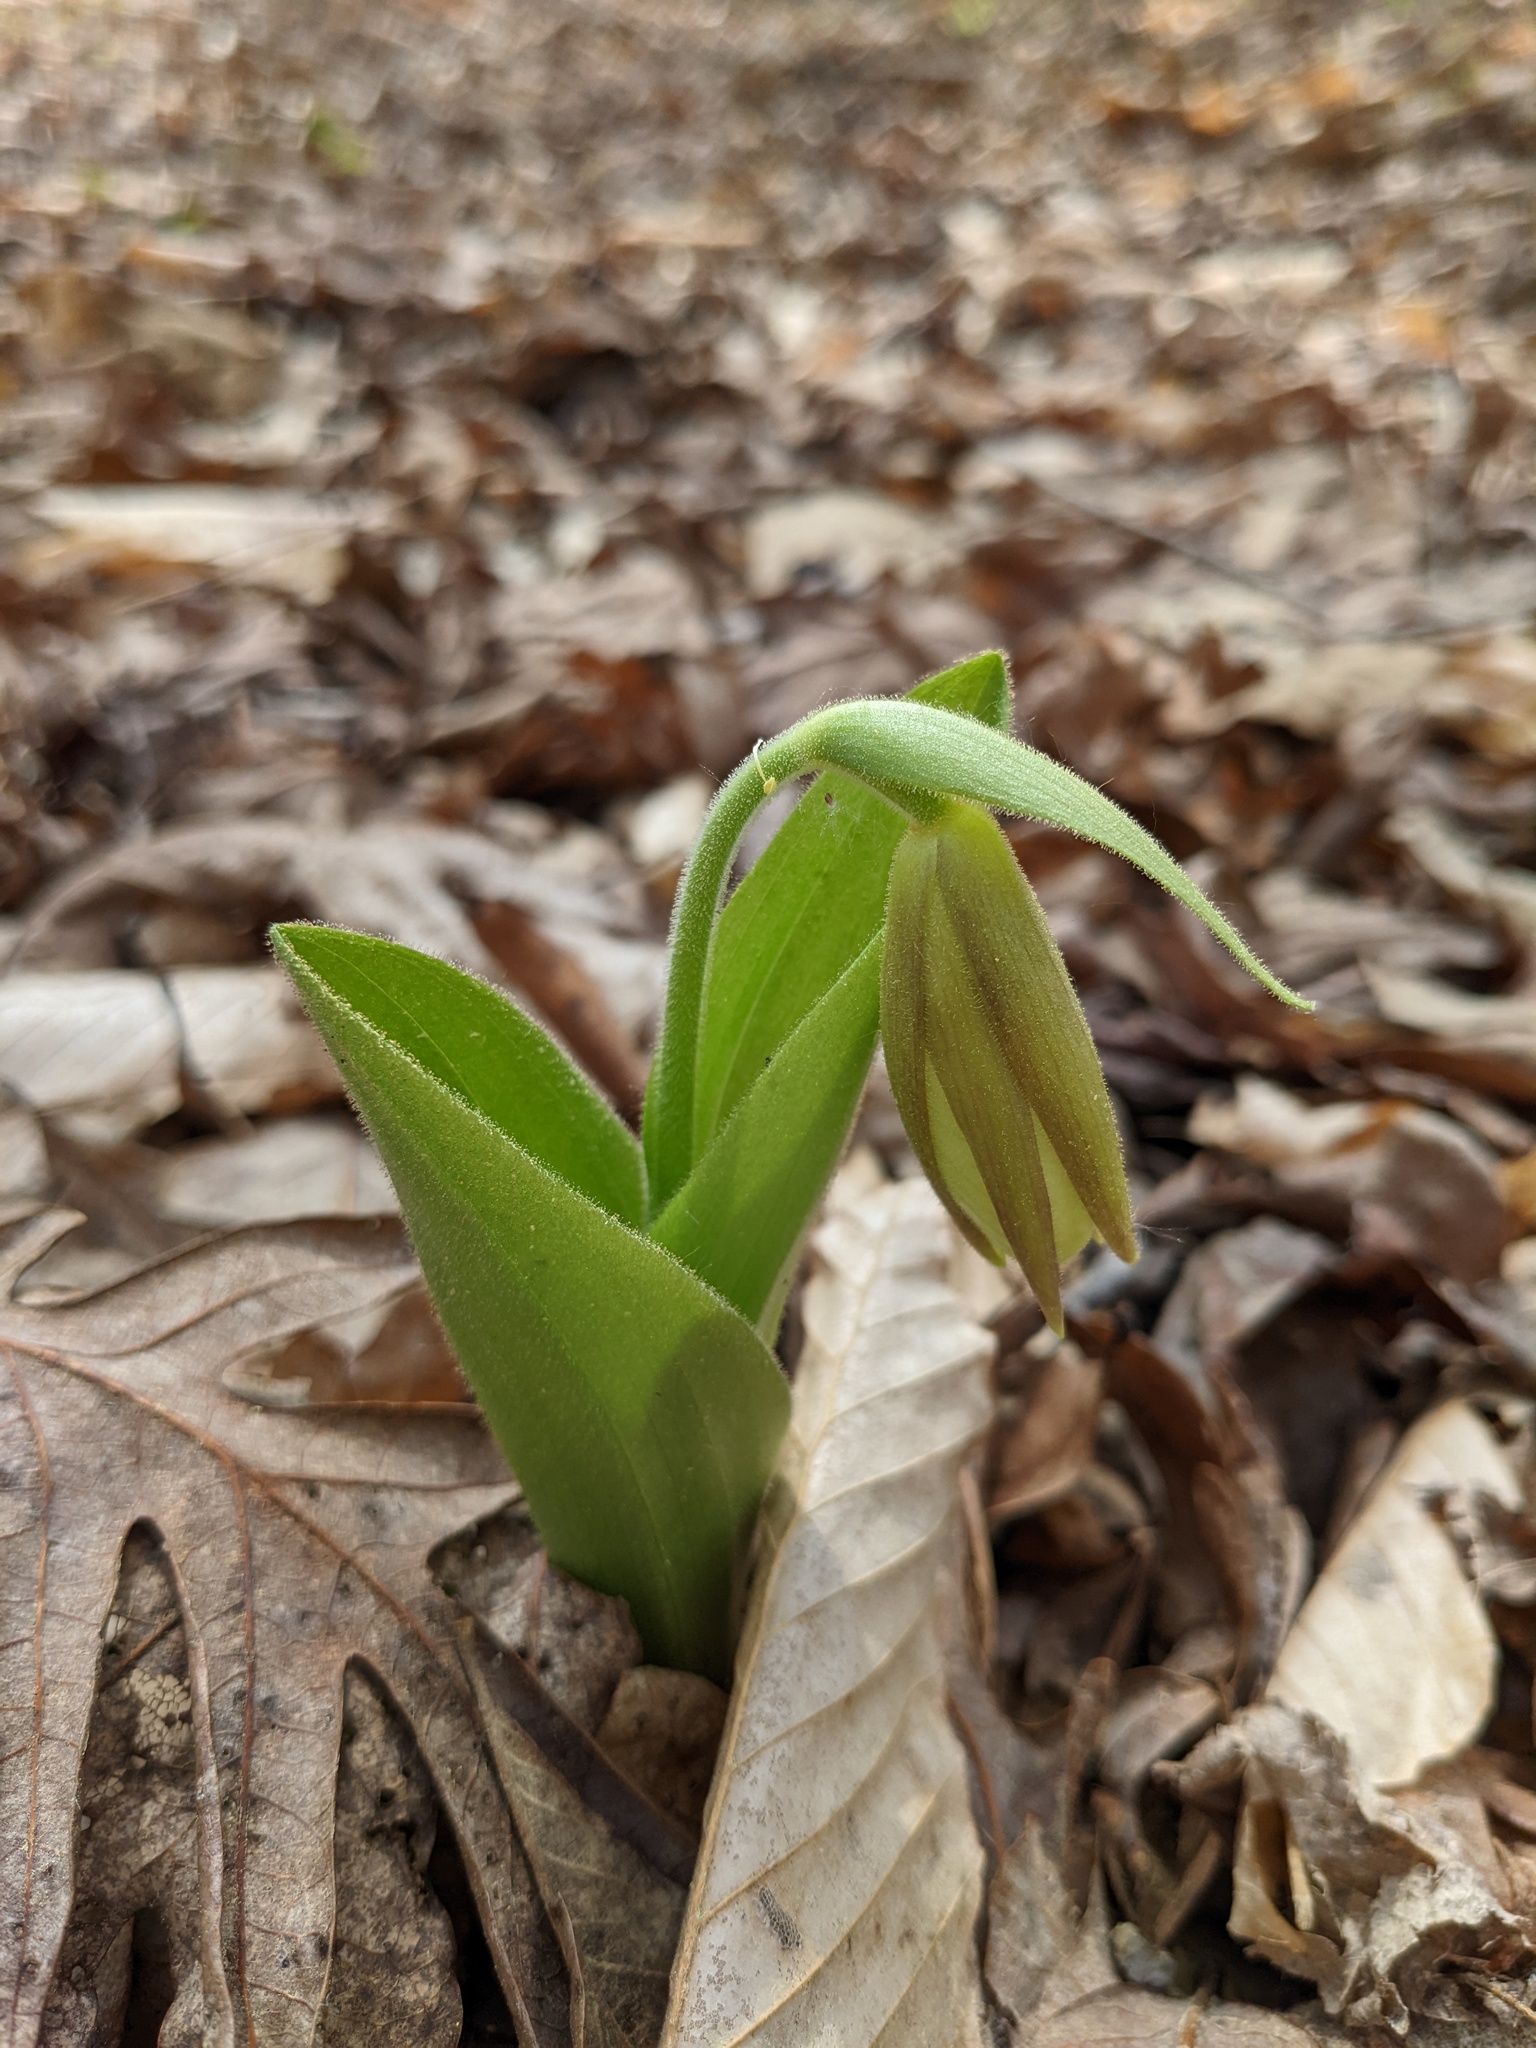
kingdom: Plantae
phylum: Tracheophyta
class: Liliopsida
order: Asparagales
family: Orchidaceae
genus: Cypripedium
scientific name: Cypripedium acaule
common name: Pink lady's-slipper
